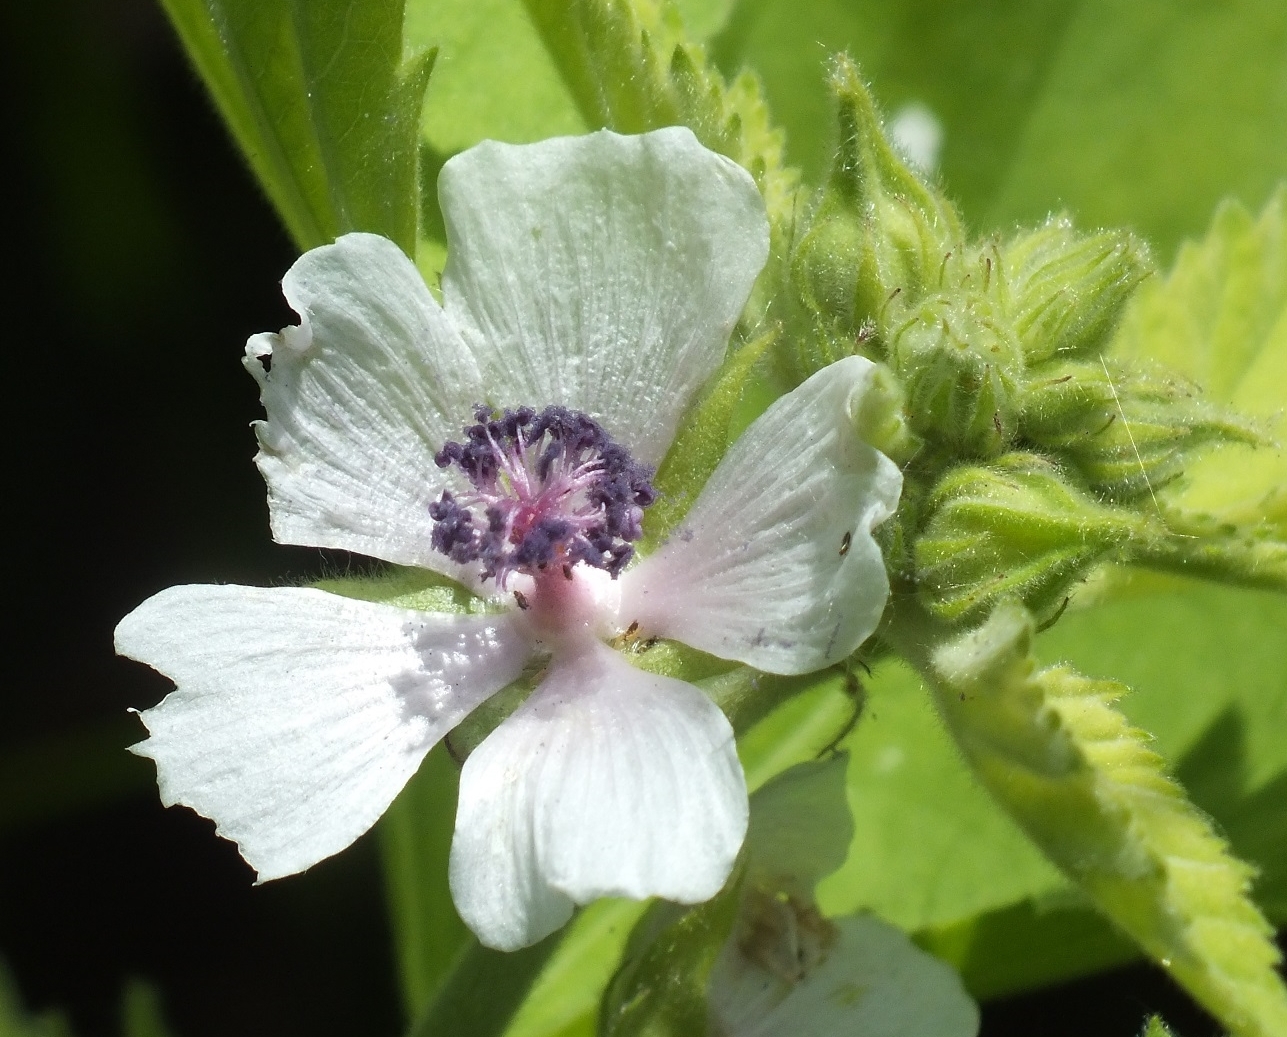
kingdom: Plantae
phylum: Tracheophyta
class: Magnoliopsida
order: Malvales
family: Malvaceae
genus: Althaea
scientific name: Althaea officinalis
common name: Marsh-mallow
